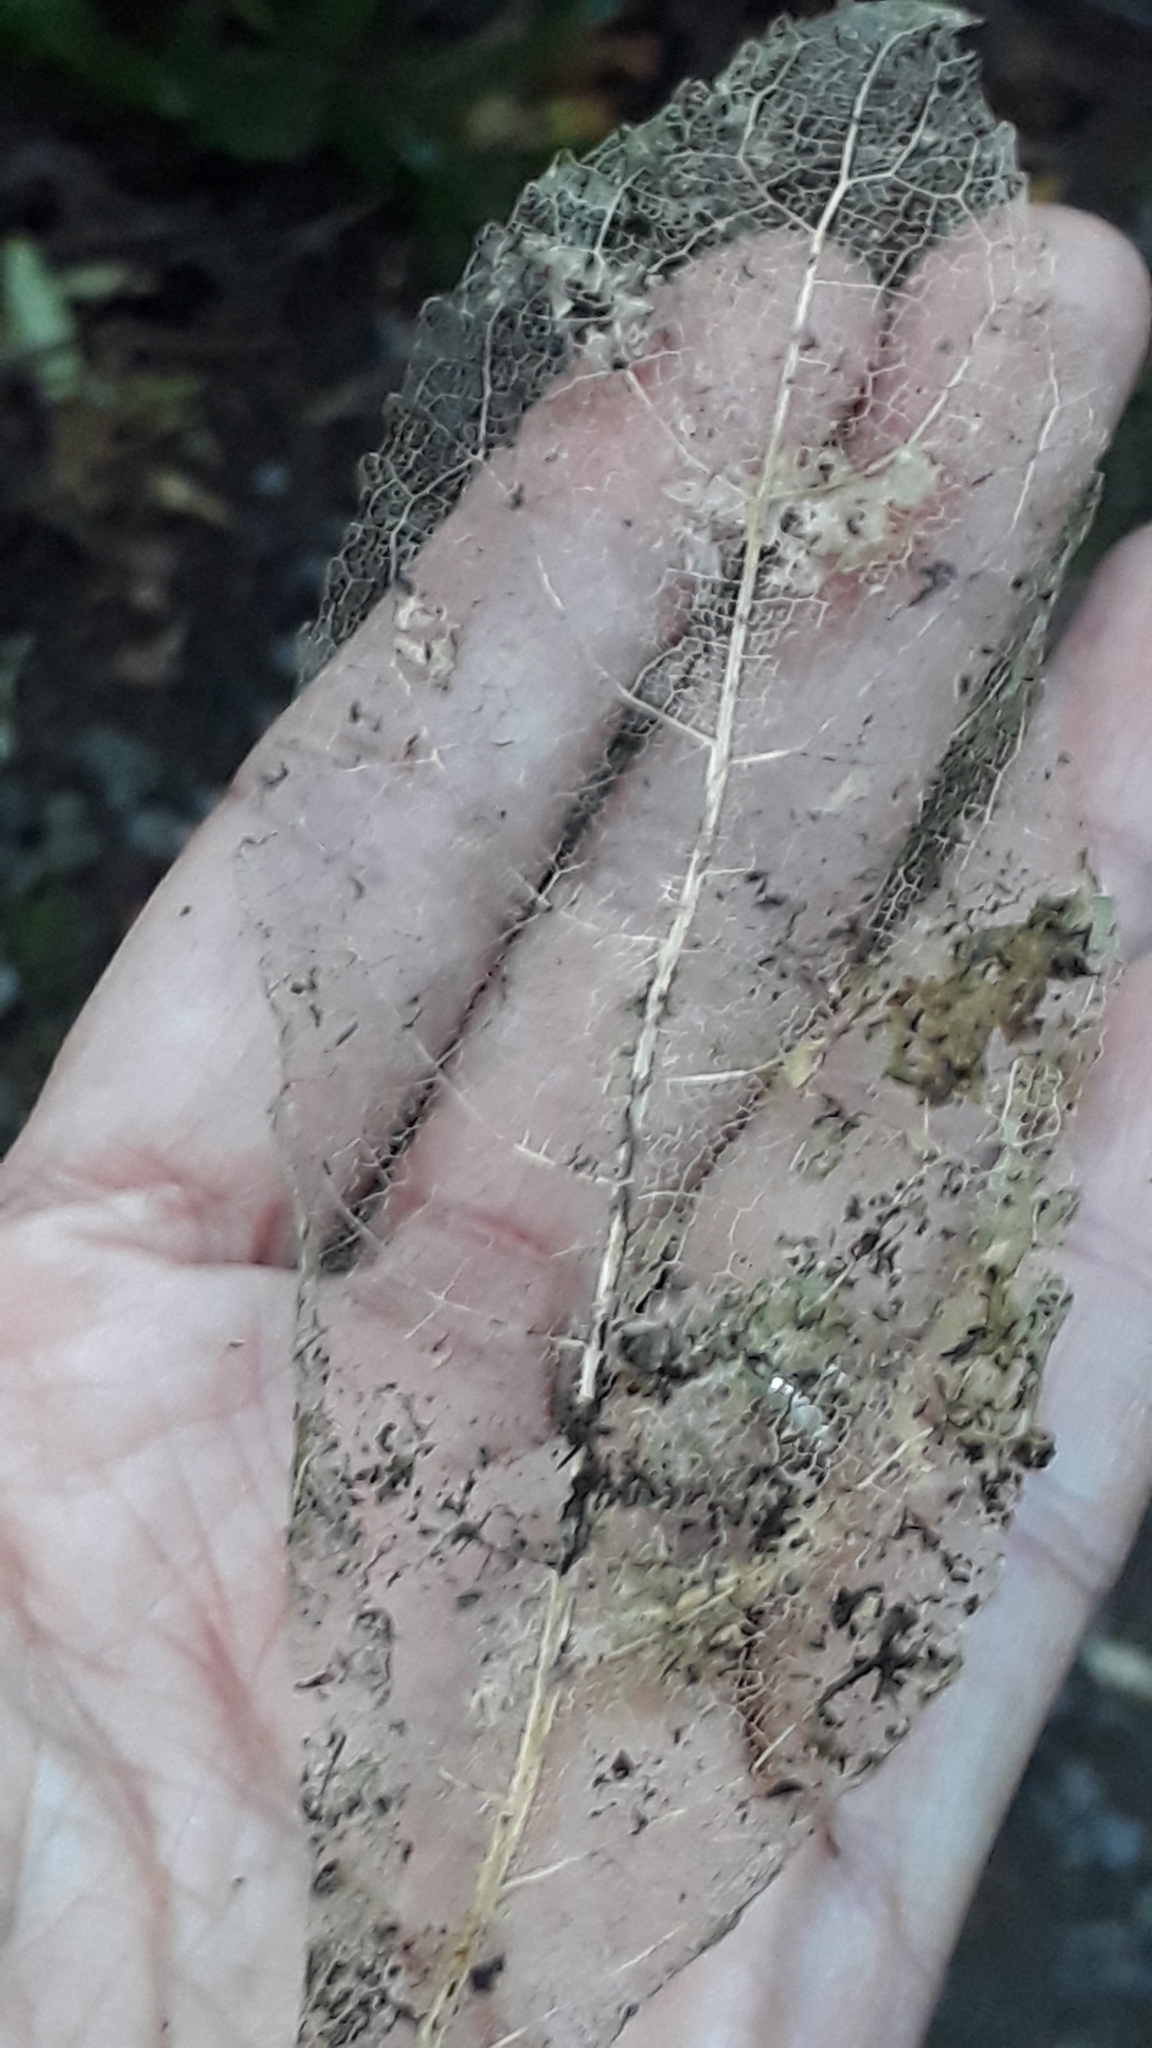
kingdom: Plantae
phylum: Tracheophyta
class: Magnoliopsida
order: Malpighiales
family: Violaceae
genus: Melicytus
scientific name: Melicytus ramiflorus
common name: Mahoe
